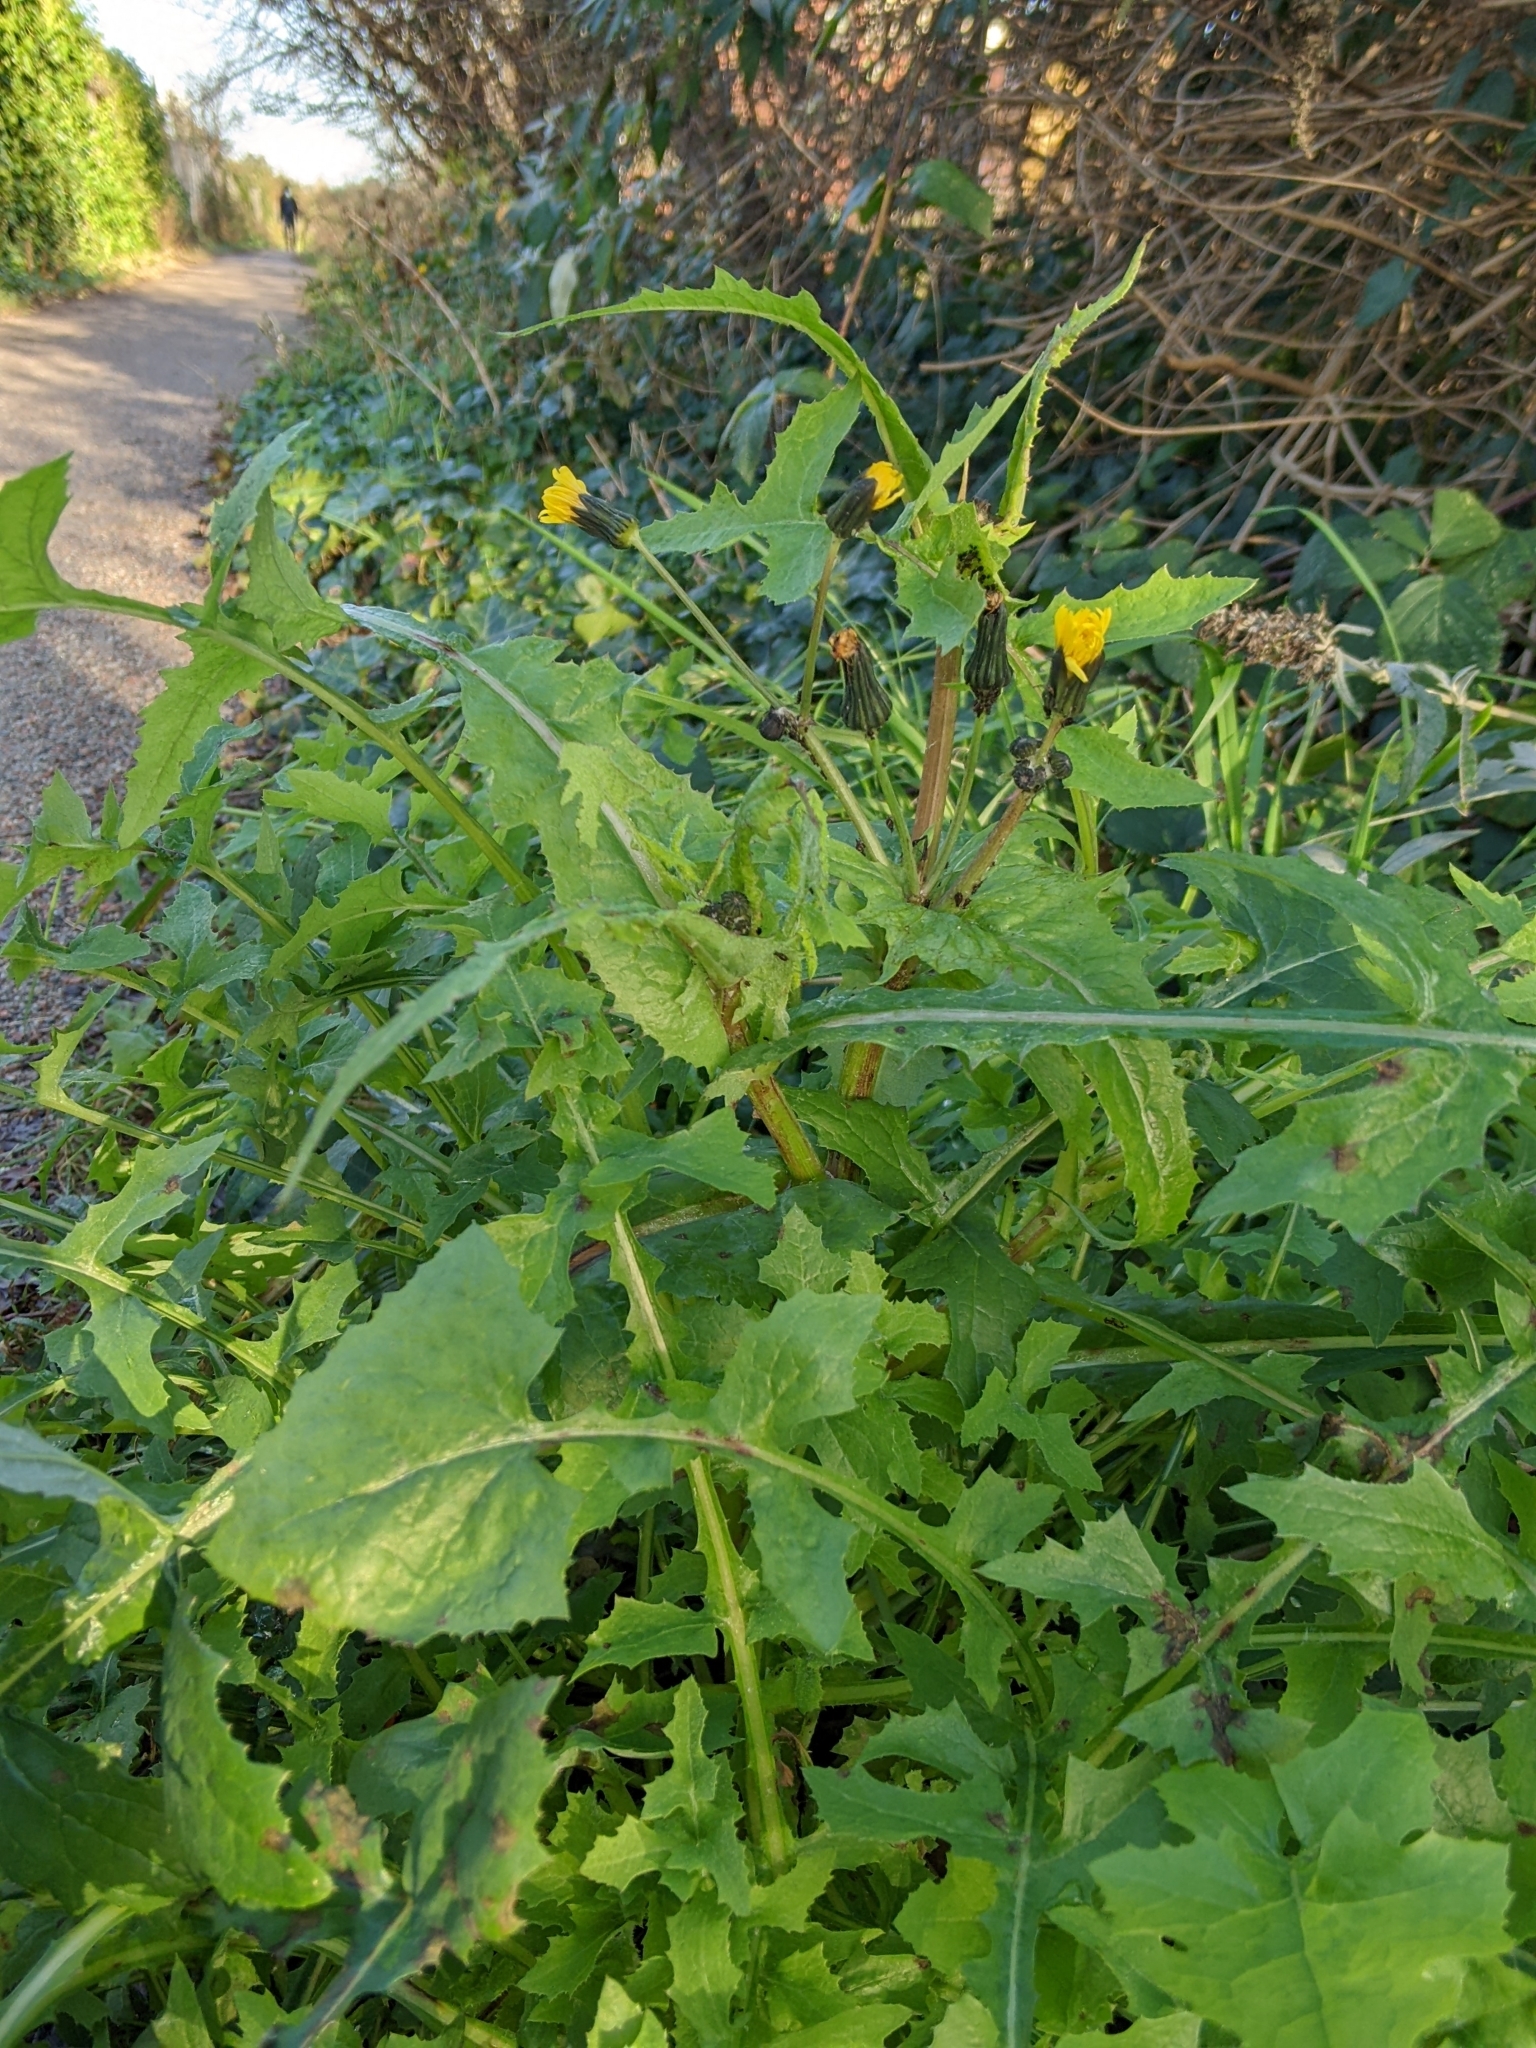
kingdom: Plantae
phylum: Tracheophyta
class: Magnoliopsida
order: Asterales
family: Asteraceae
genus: Sonchus
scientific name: Sonchus oleraceus
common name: Common sowthistle
